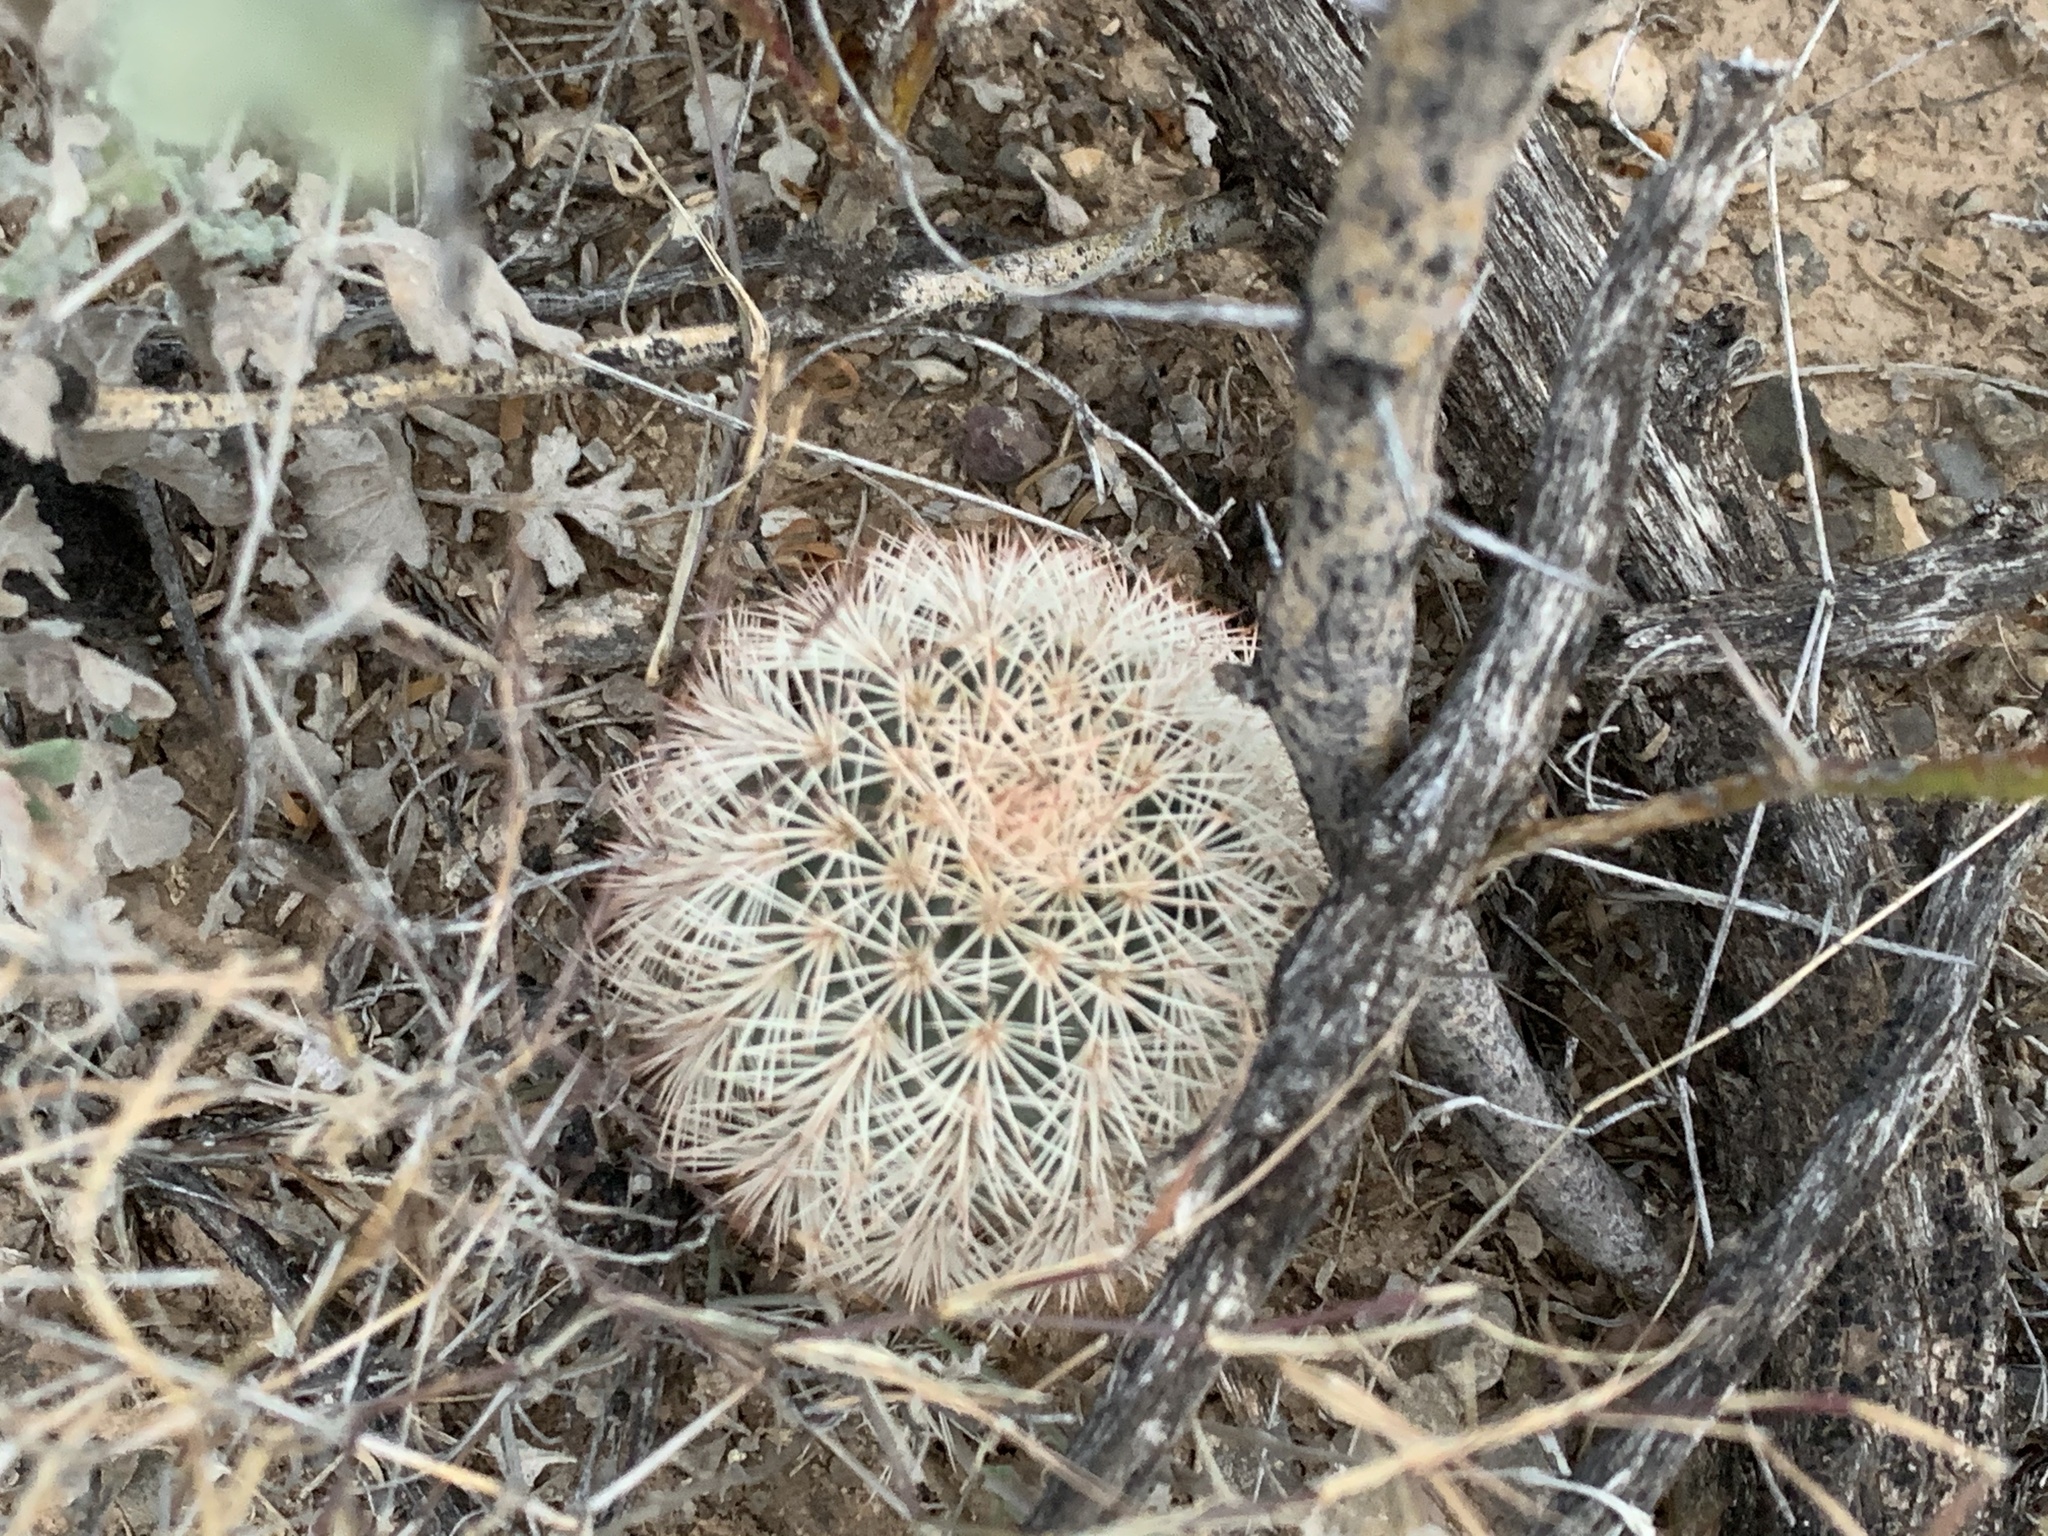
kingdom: Plantae
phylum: Tracheophyta
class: Magnoliopsida
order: Caryophyllales
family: Cactaceae
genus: Echinocereus
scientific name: Echinocereus dasyacanthus
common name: Spiny hedgehog cactus
